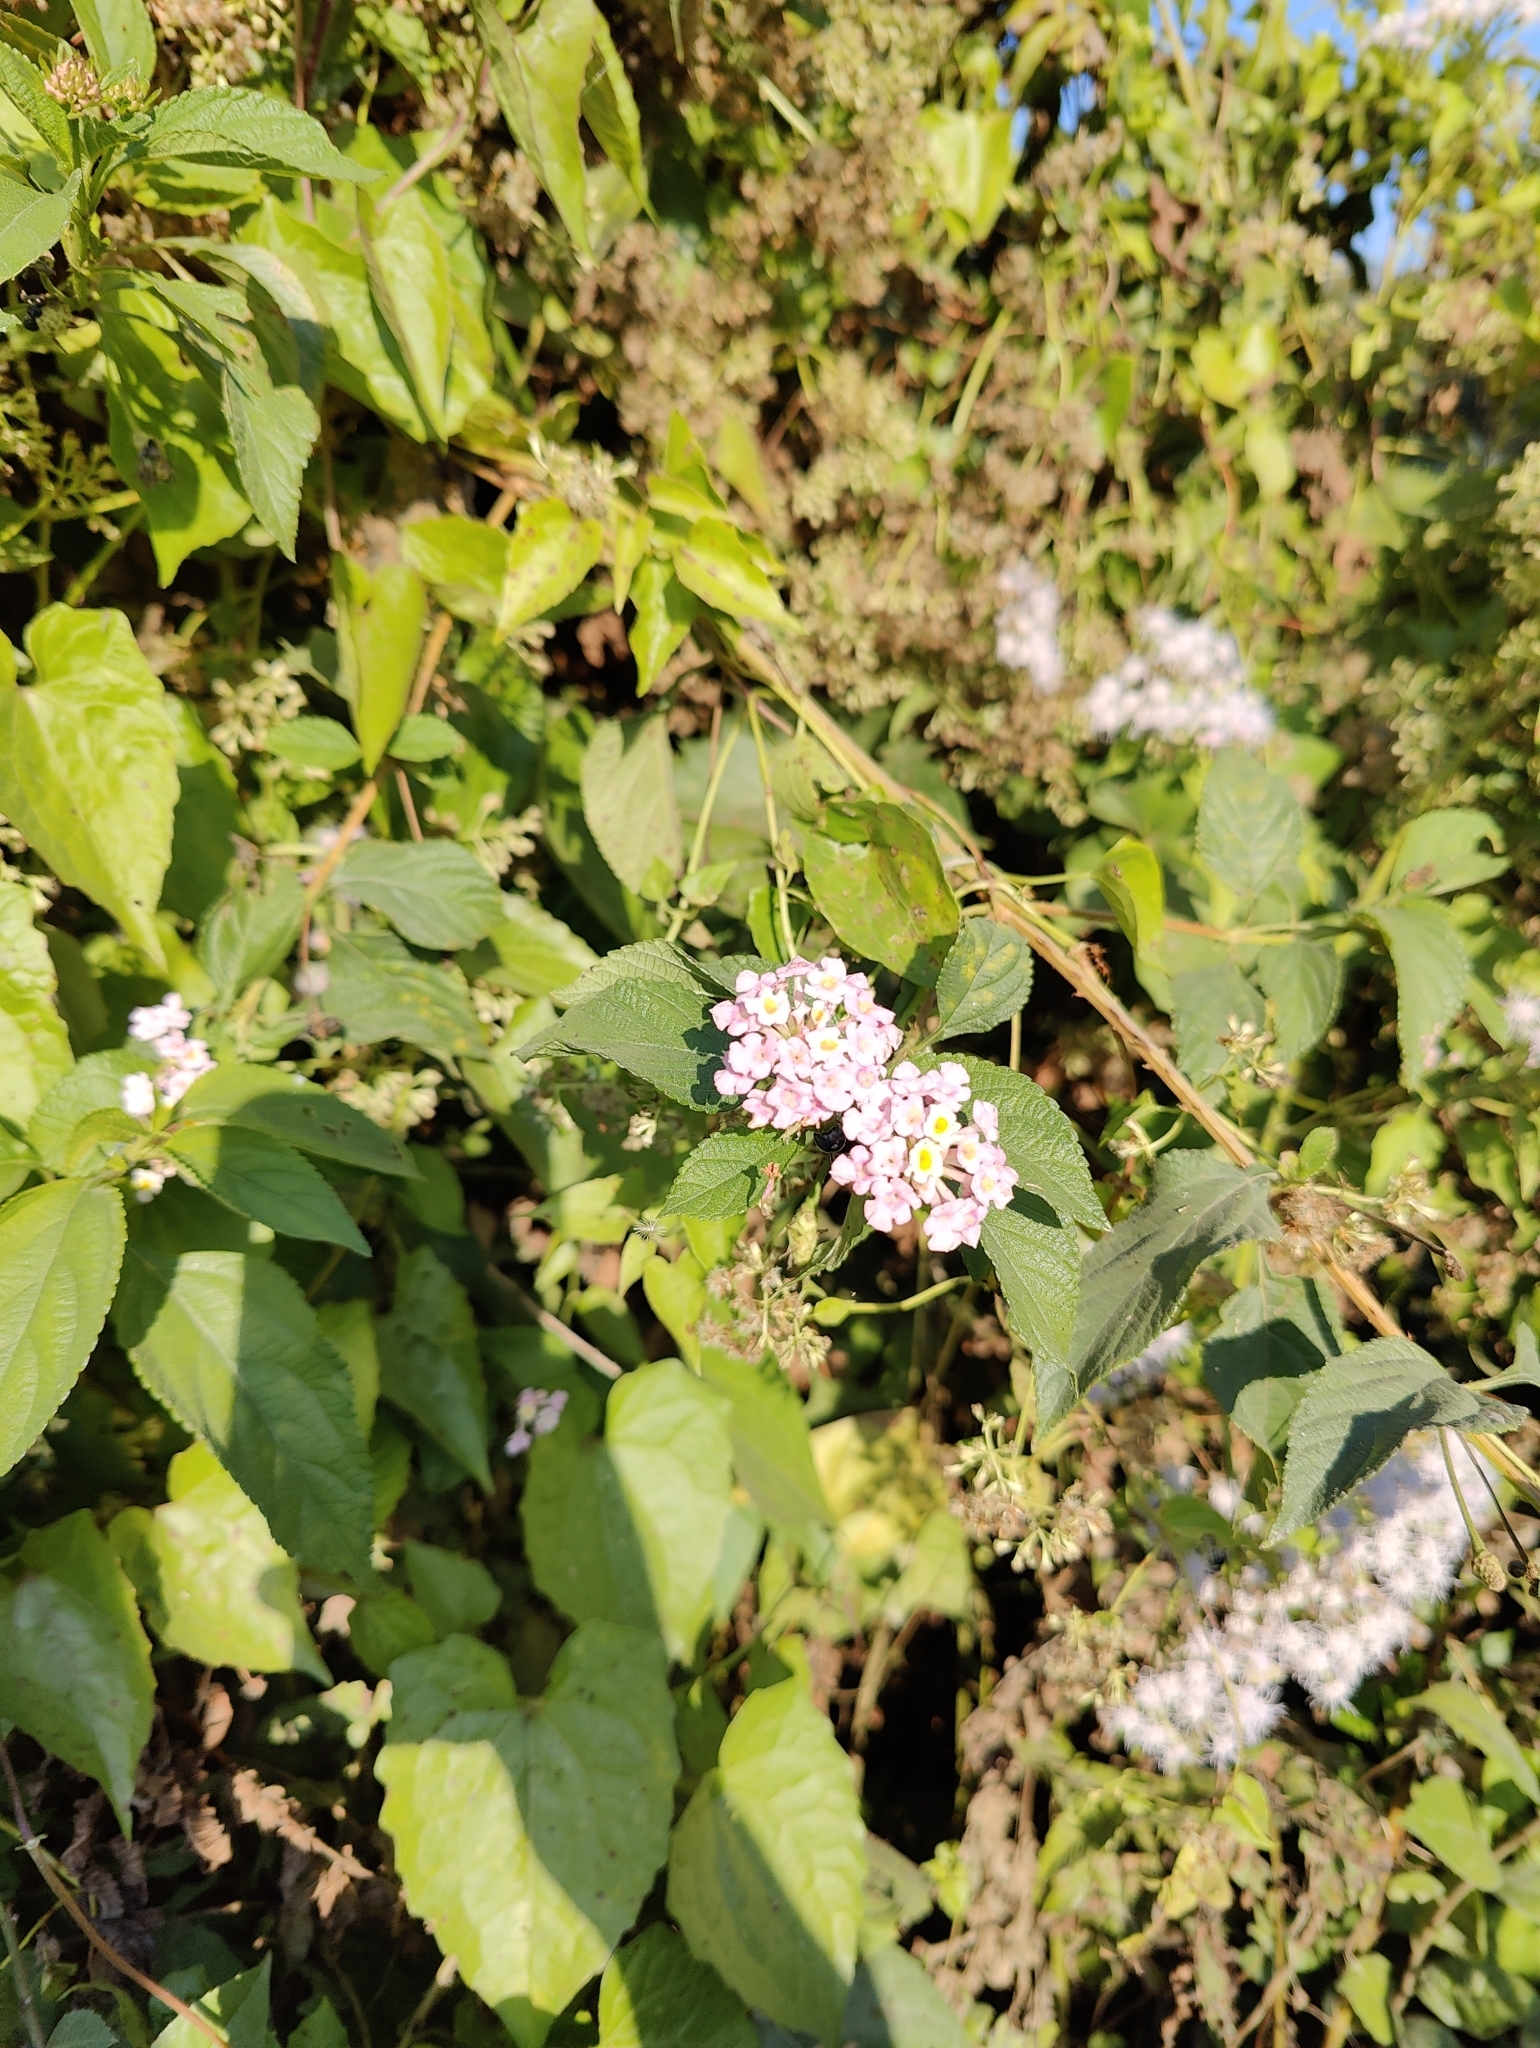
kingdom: Plantae
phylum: Tracheophyta
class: Magnoliopsida
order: Lamiales
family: Verbenaceae
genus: Lantana
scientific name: Lantana camara
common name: Lantana
